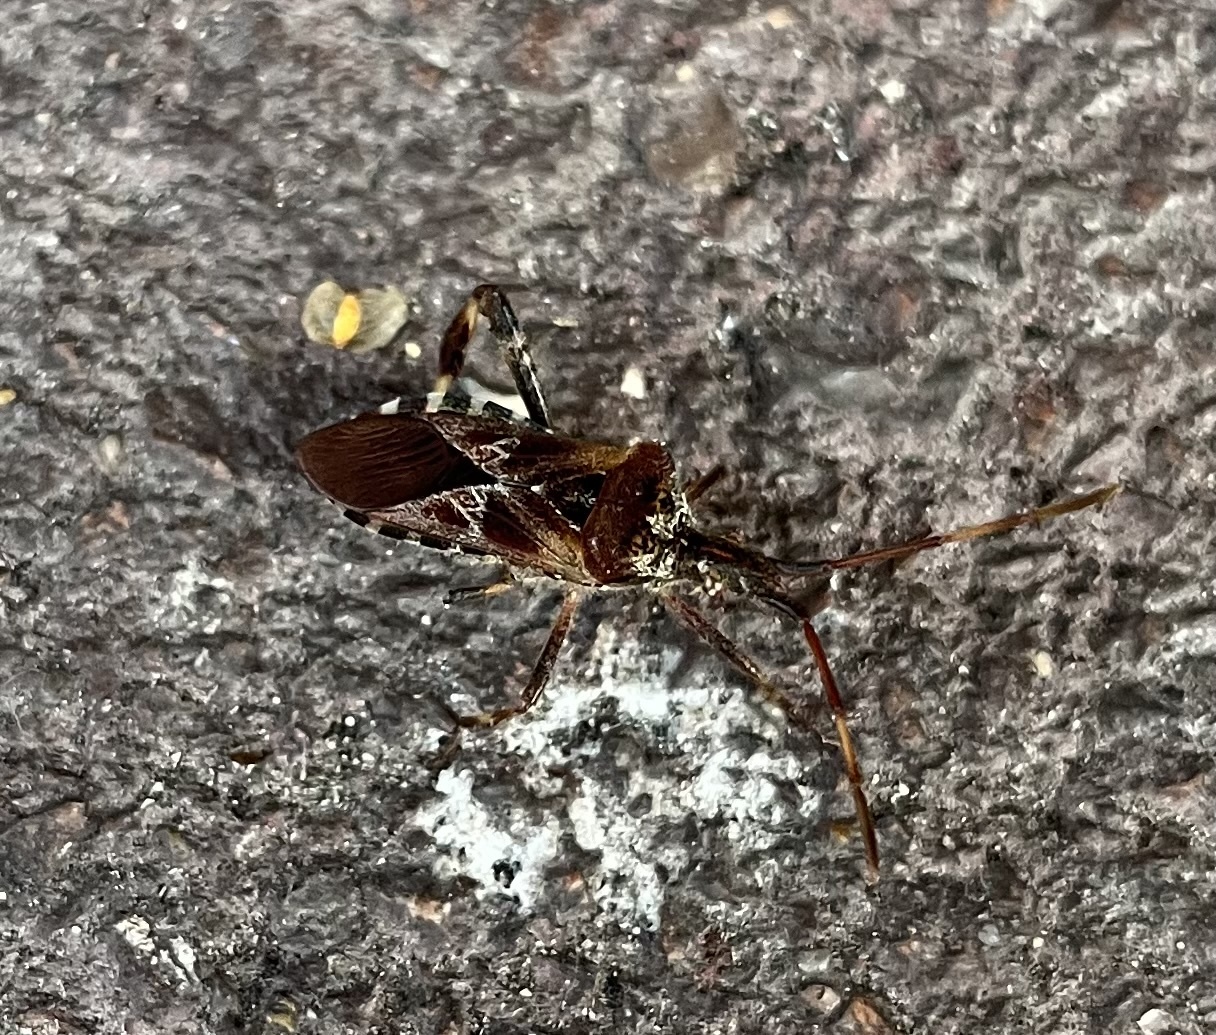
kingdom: Animalia
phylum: Arthropoda
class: Insecta
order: Hemiptera
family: Coreidae
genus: Leptoglossus
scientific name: Leptoglossus occidentalis
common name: Western conifer-seed bug
